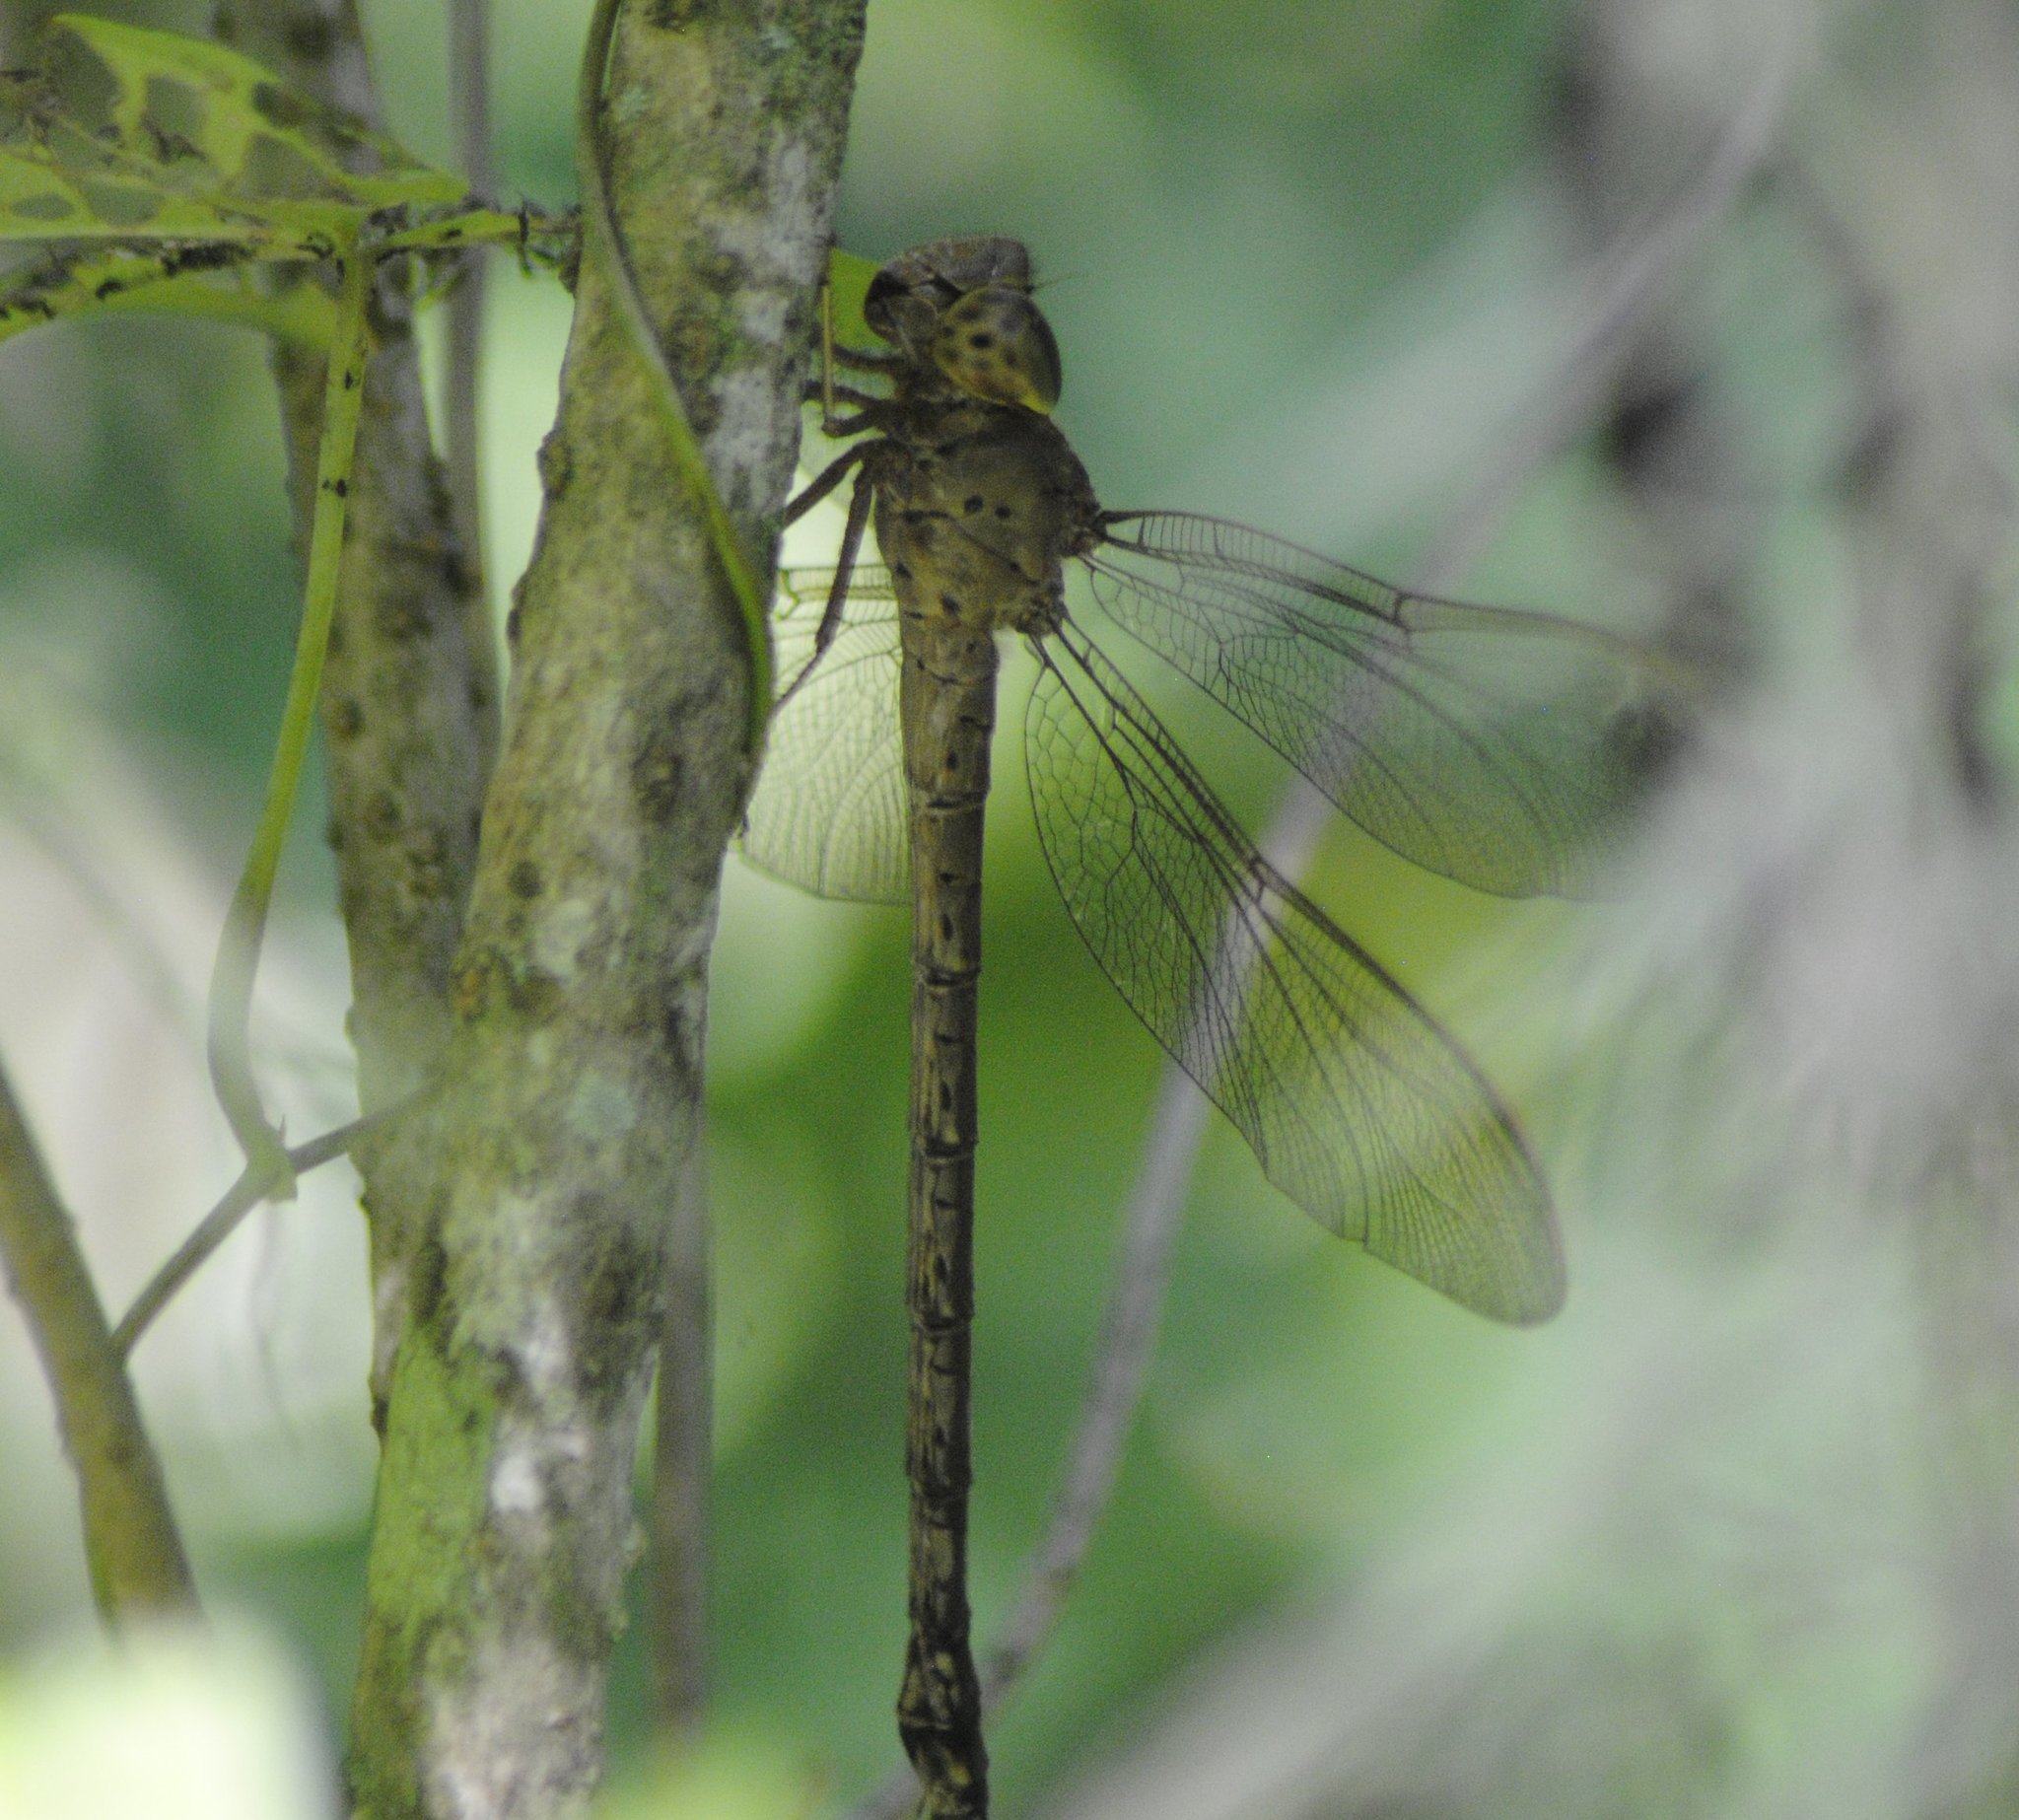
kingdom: Animalia
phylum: Arthropoda
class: Insecta
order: Odonata
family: Aeshnidae
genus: Gynacantha
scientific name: Gynacantha nervosa
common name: Twilight darner
